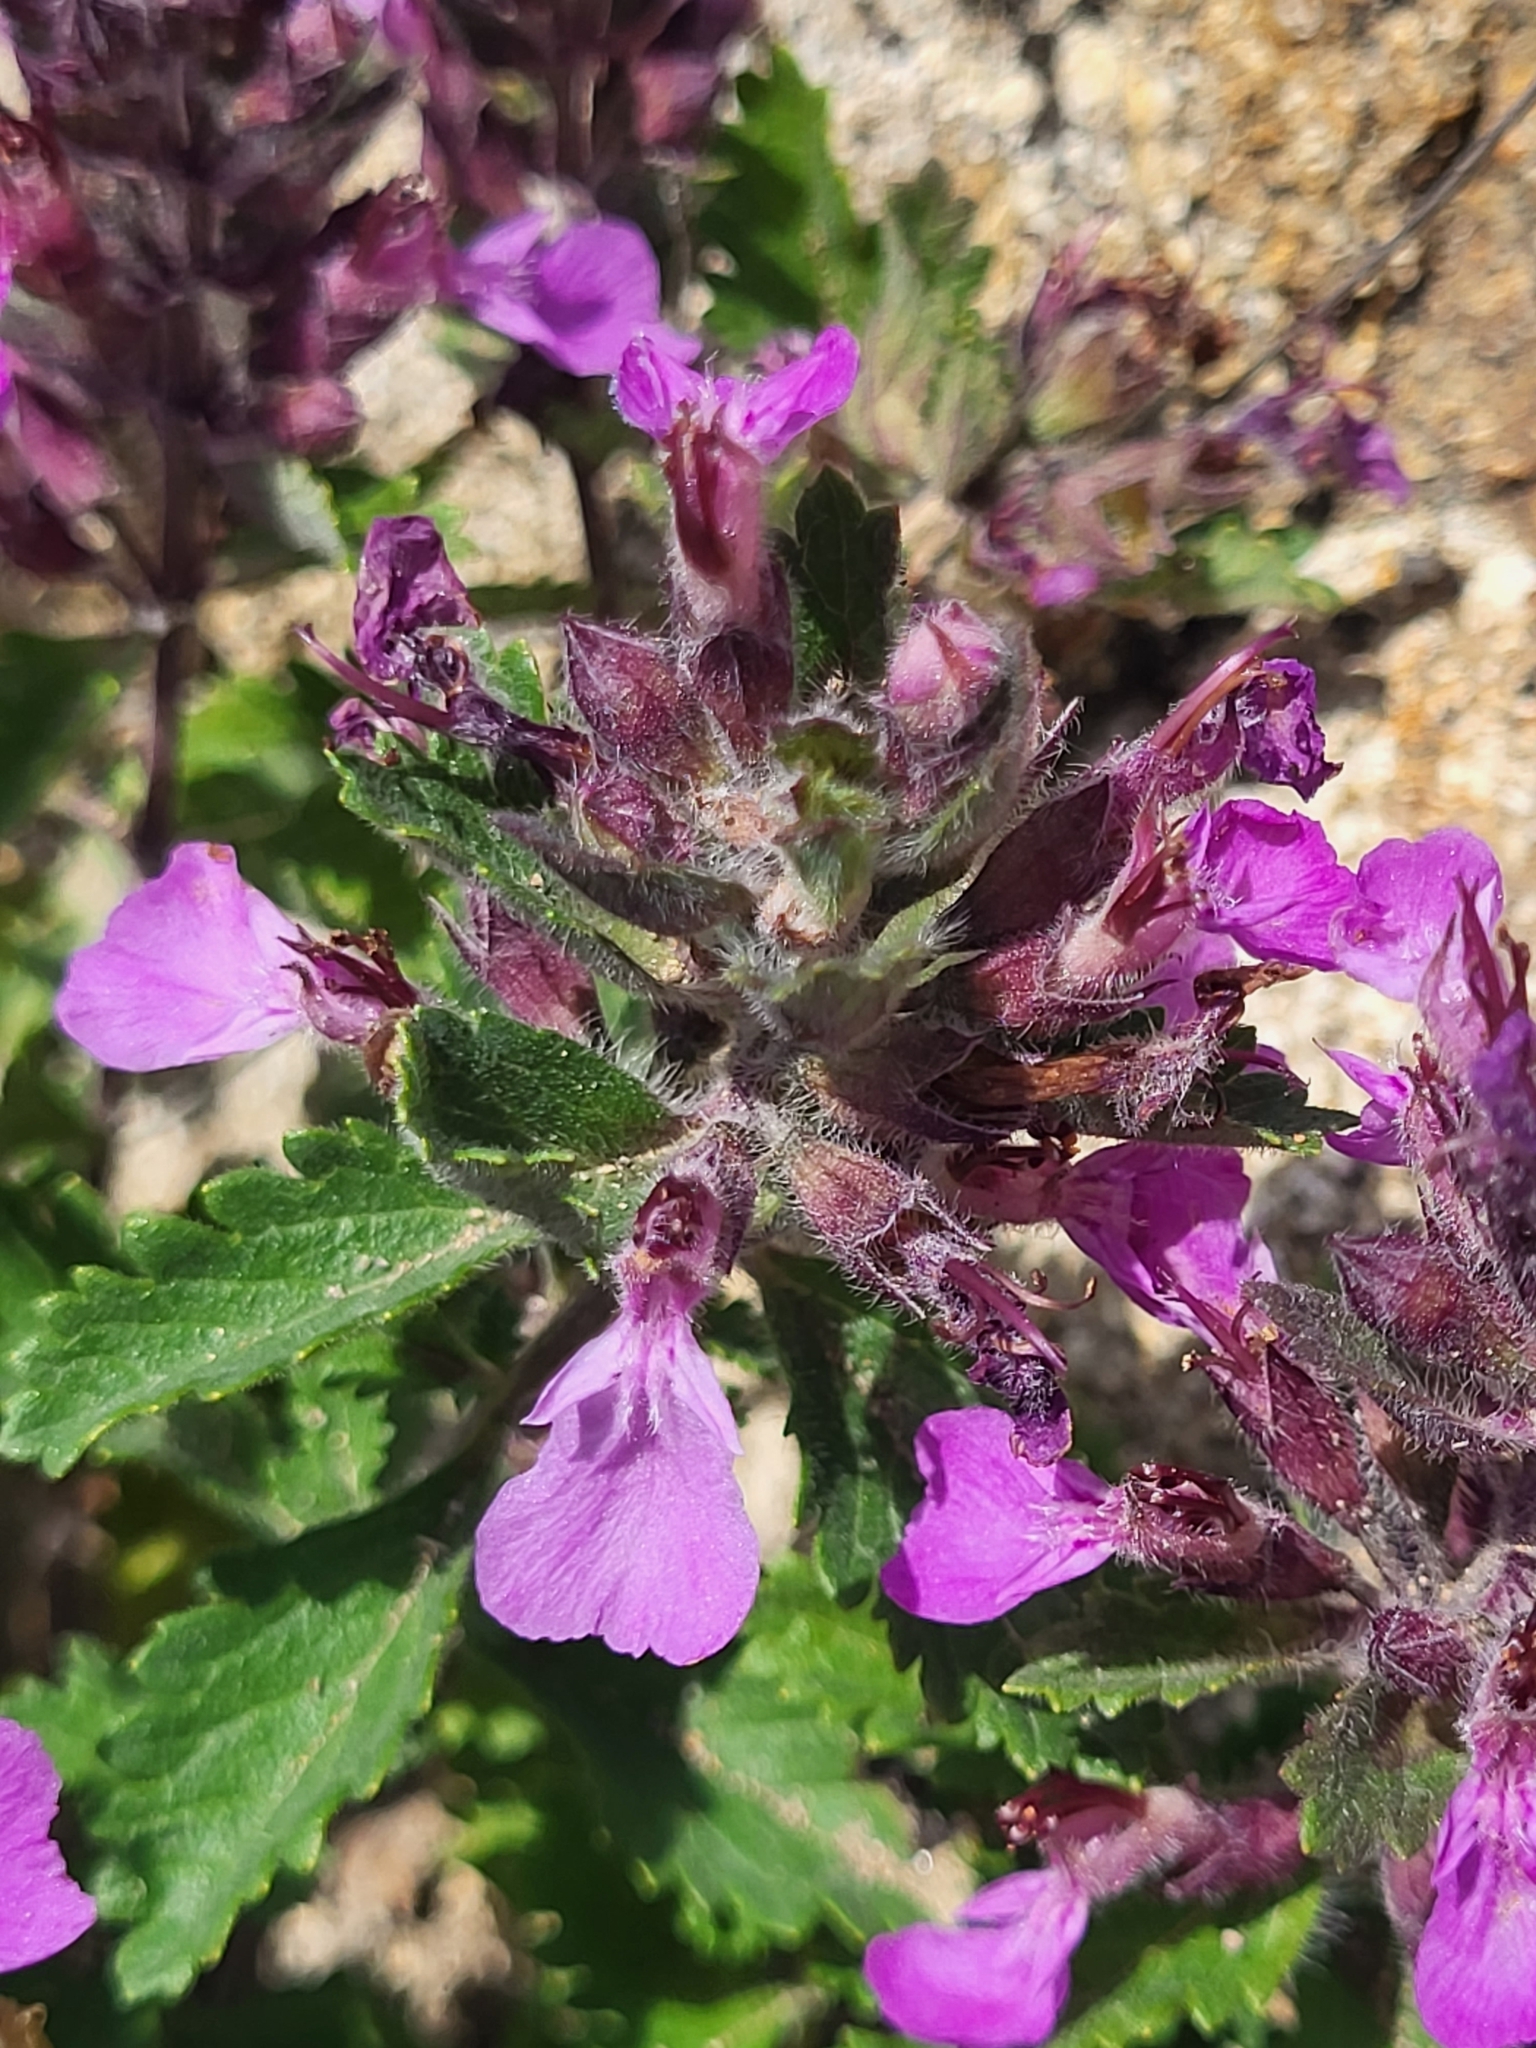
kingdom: Plantae
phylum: Tracheophyta
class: Magnoliopsida
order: Lamiales
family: Lamiaceae
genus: Teucrium
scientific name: Teucrium chamaedrys
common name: Wall germander
